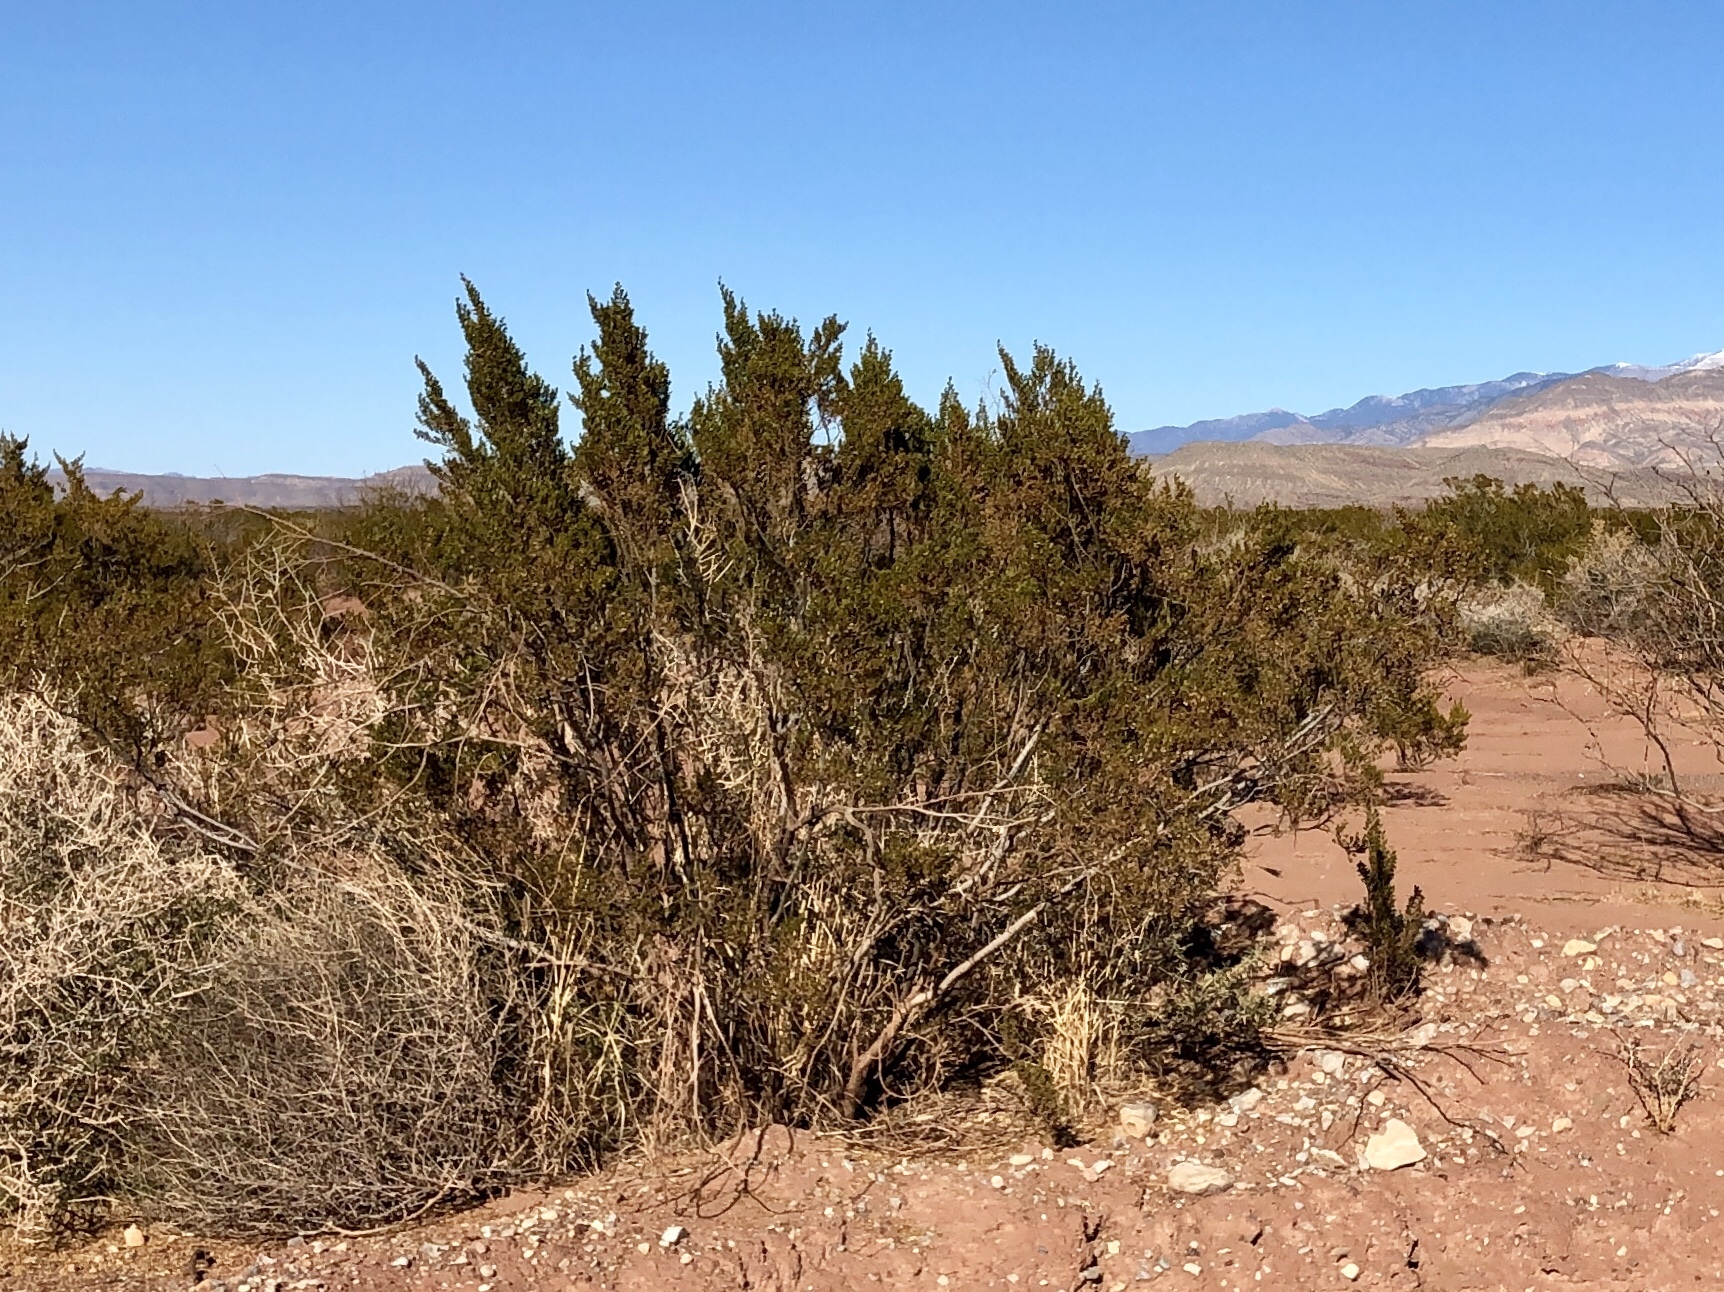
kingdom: Plantae
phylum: Tracheophyta
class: Magnoliopsida
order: Zygophyllales
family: Zygophyllaceae
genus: Larrea
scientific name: Larrea tridentata
